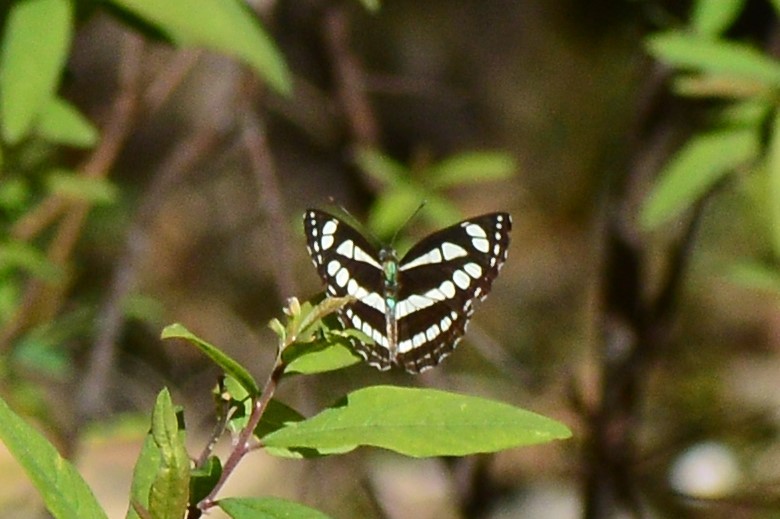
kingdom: Animalia
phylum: Arthropoda
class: Insecta
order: Lepidoptera
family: Nymphalidae
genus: Neptis
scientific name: Neptis hylas
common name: Common sailer
